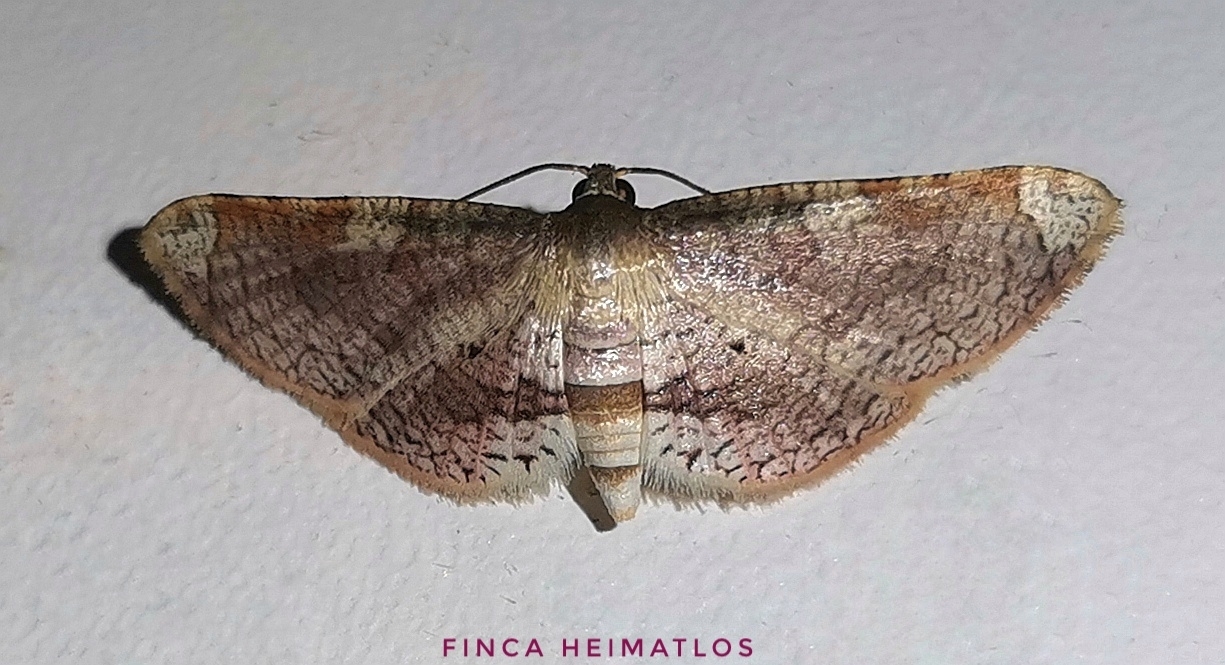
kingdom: Animalia
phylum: Arthropoda
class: Insecta
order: Lepidoptera
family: Thyrididae
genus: Microsca
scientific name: Microsca hedilalis
